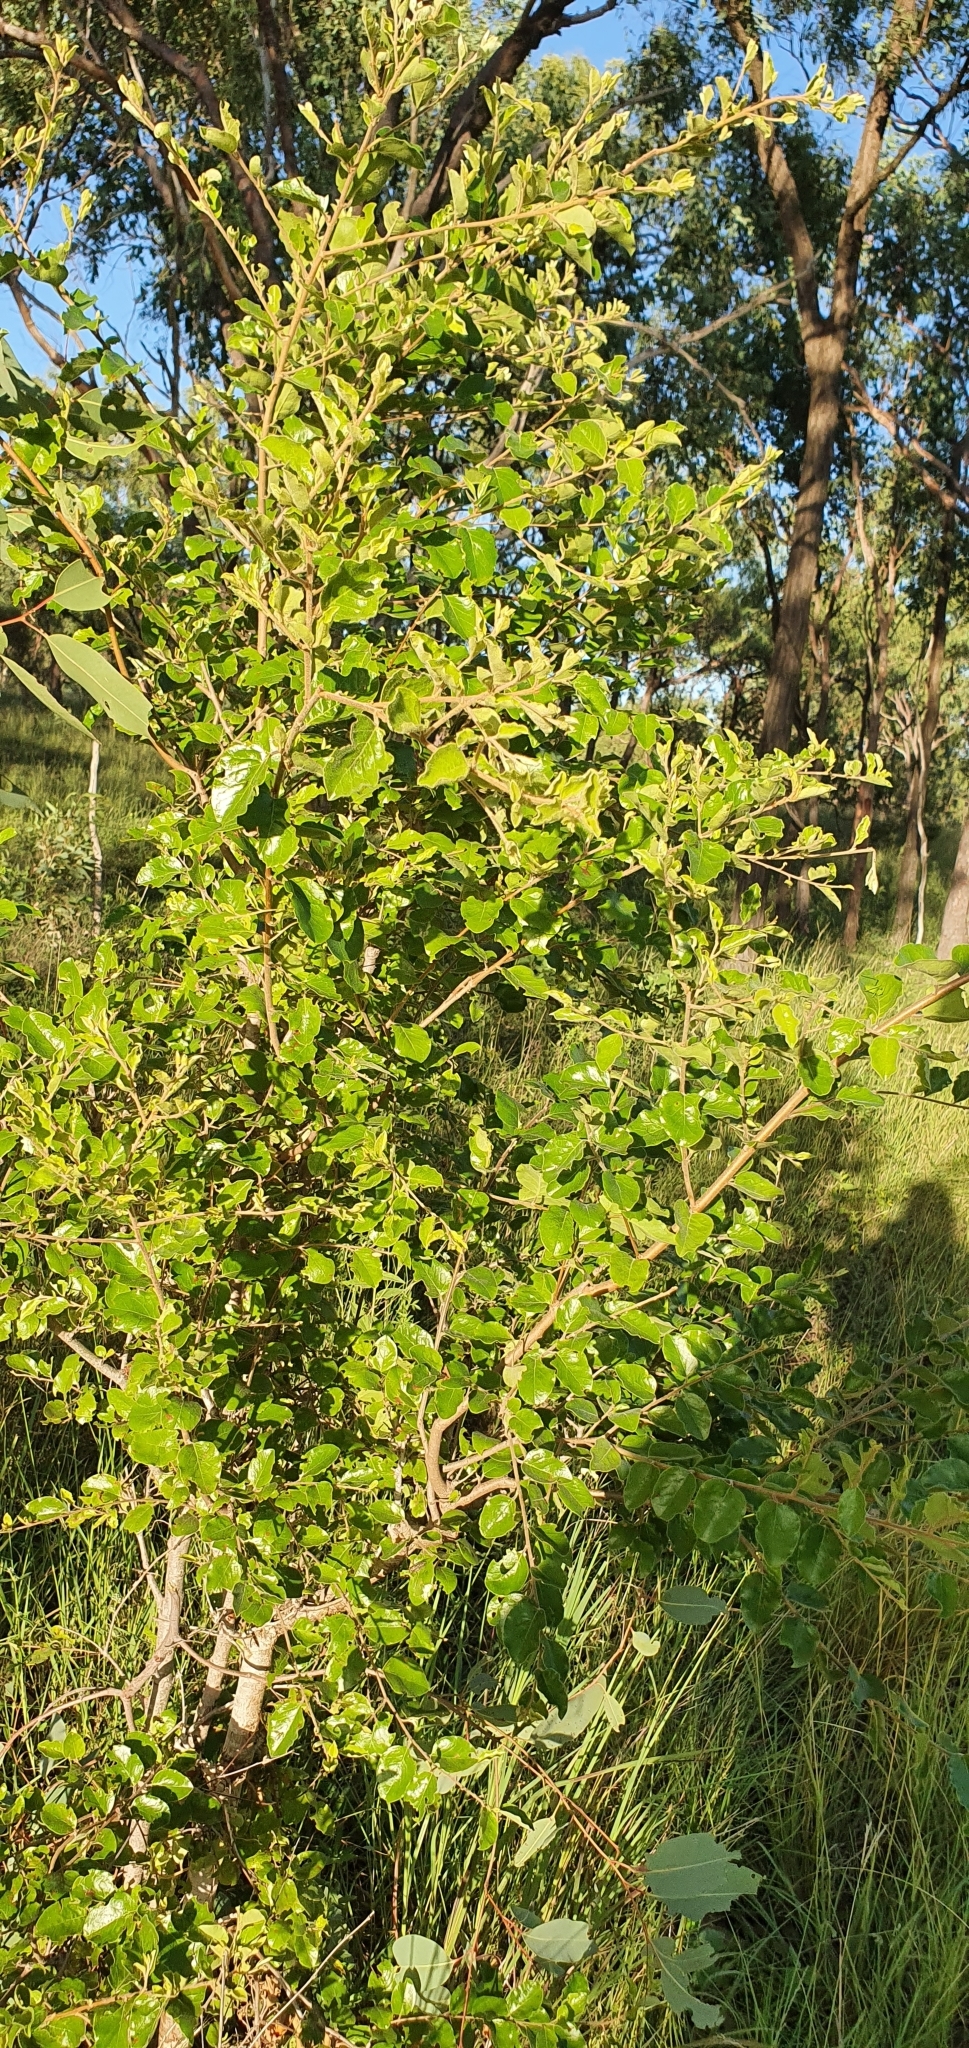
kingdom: Plantae
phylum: Tracheophyta
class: Magnoliopsida
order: Malpighiales
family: Picrodendraceae
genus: Petalostigma
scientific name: Petalostigma pubescens
